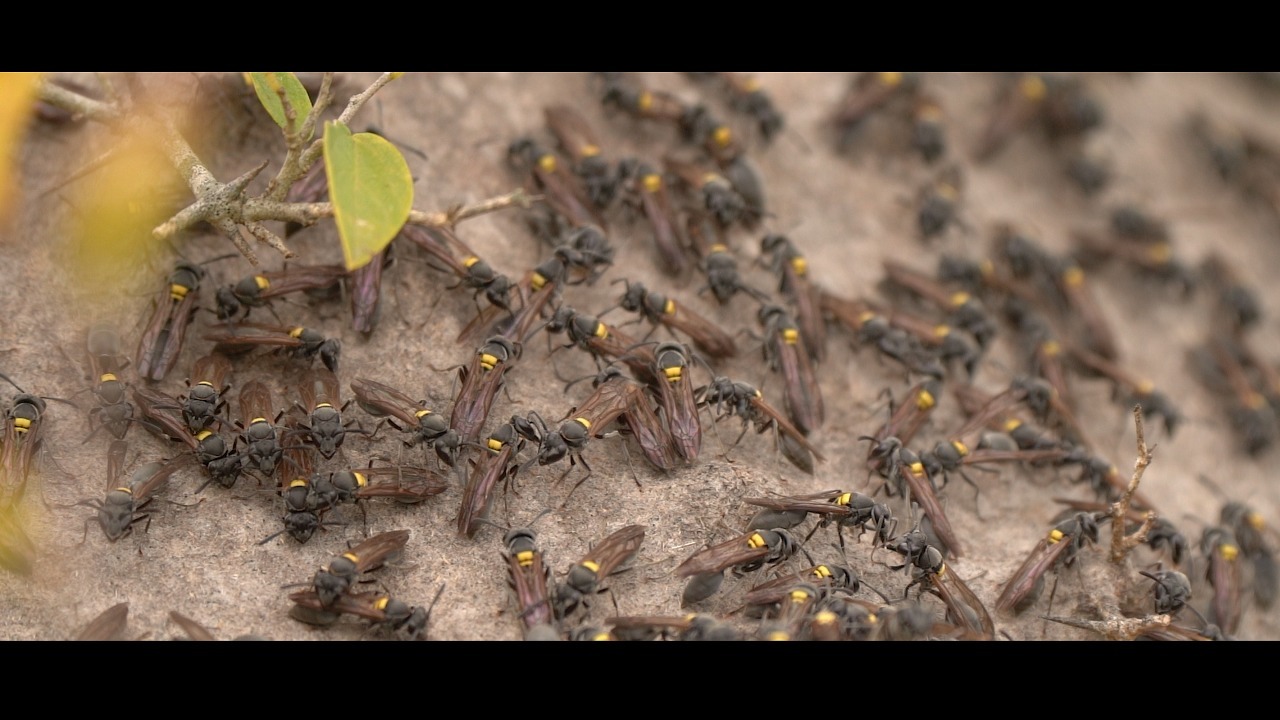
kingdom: Animalia
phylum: Arthropoda
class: Insecta
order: Hymenoptera
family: Eumenidae
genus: Polybia
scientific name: Polybia scutellaris
